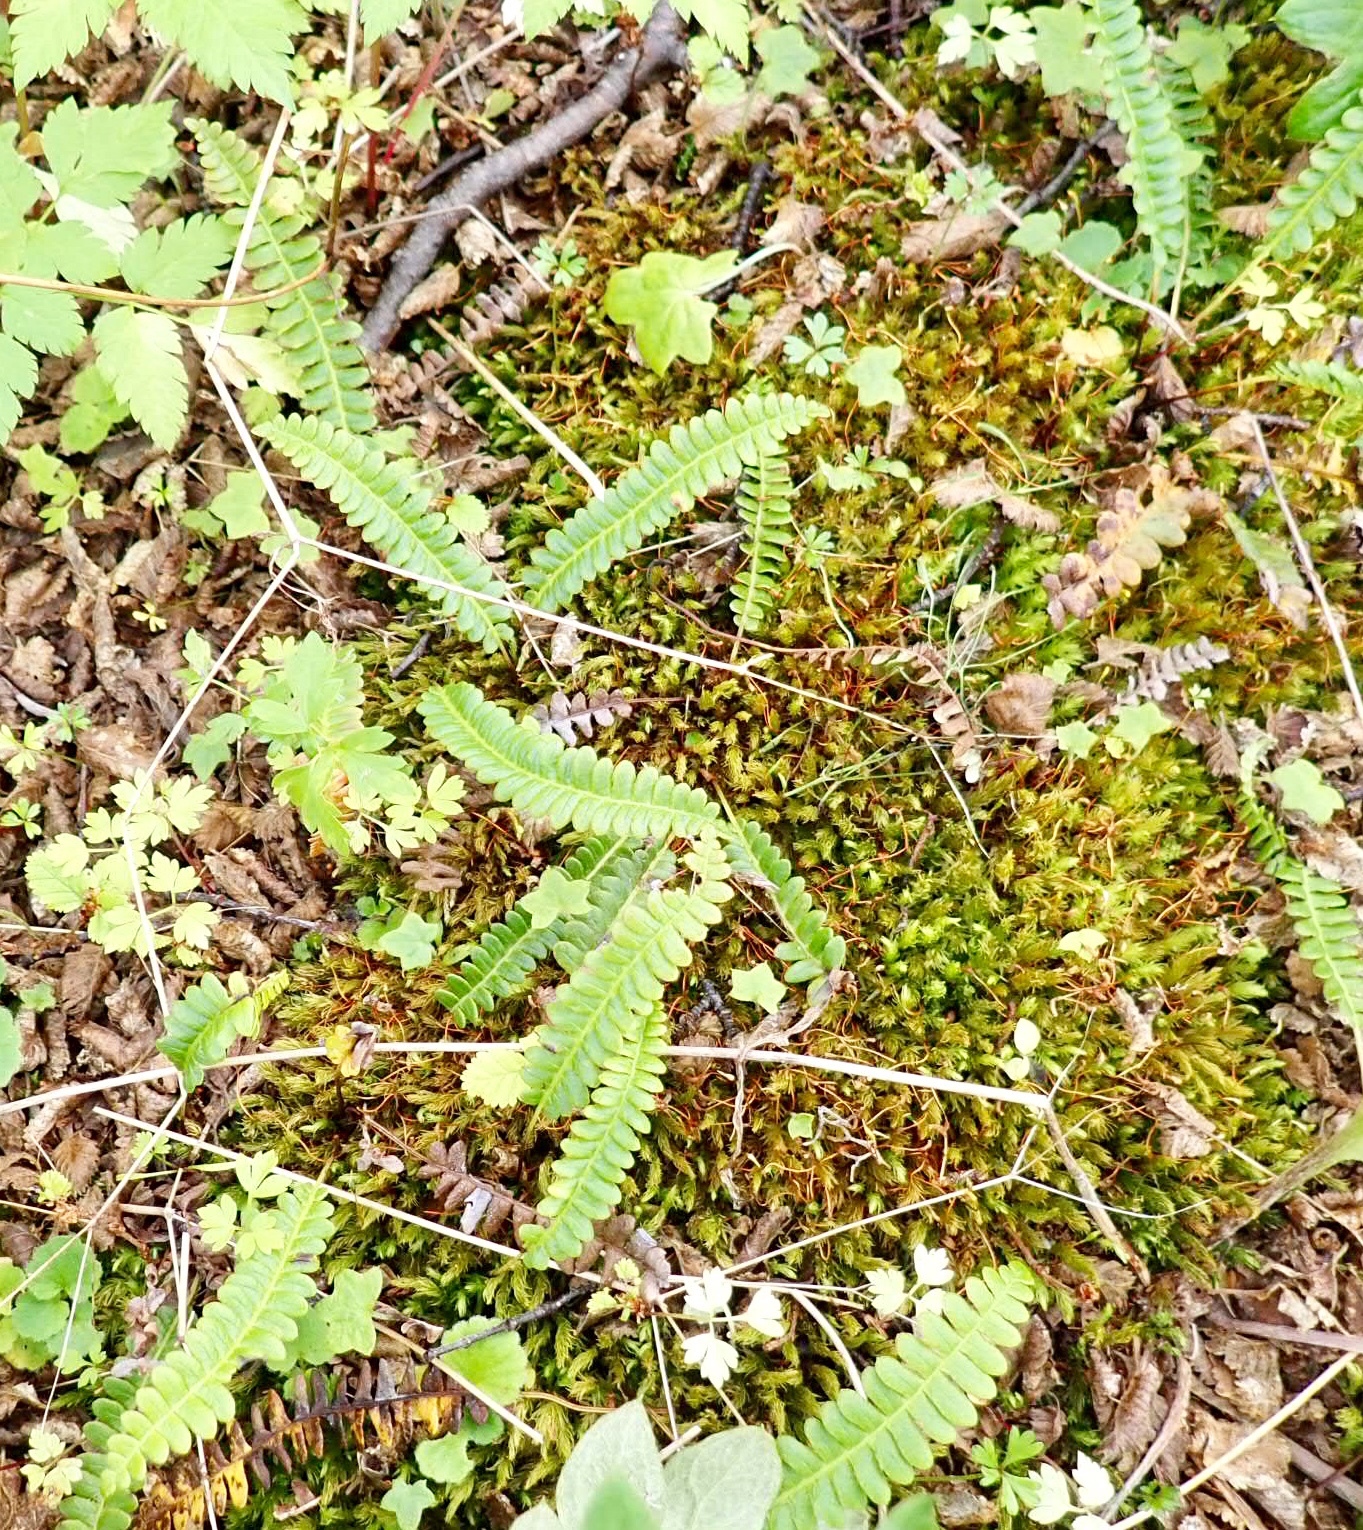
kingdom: Plantae
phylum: Tracheophyta
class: Polypodiopsida
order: Polypodiales
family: Blechnaceae
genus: Austroblechnum
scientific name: Austroblechnum penna-marina
